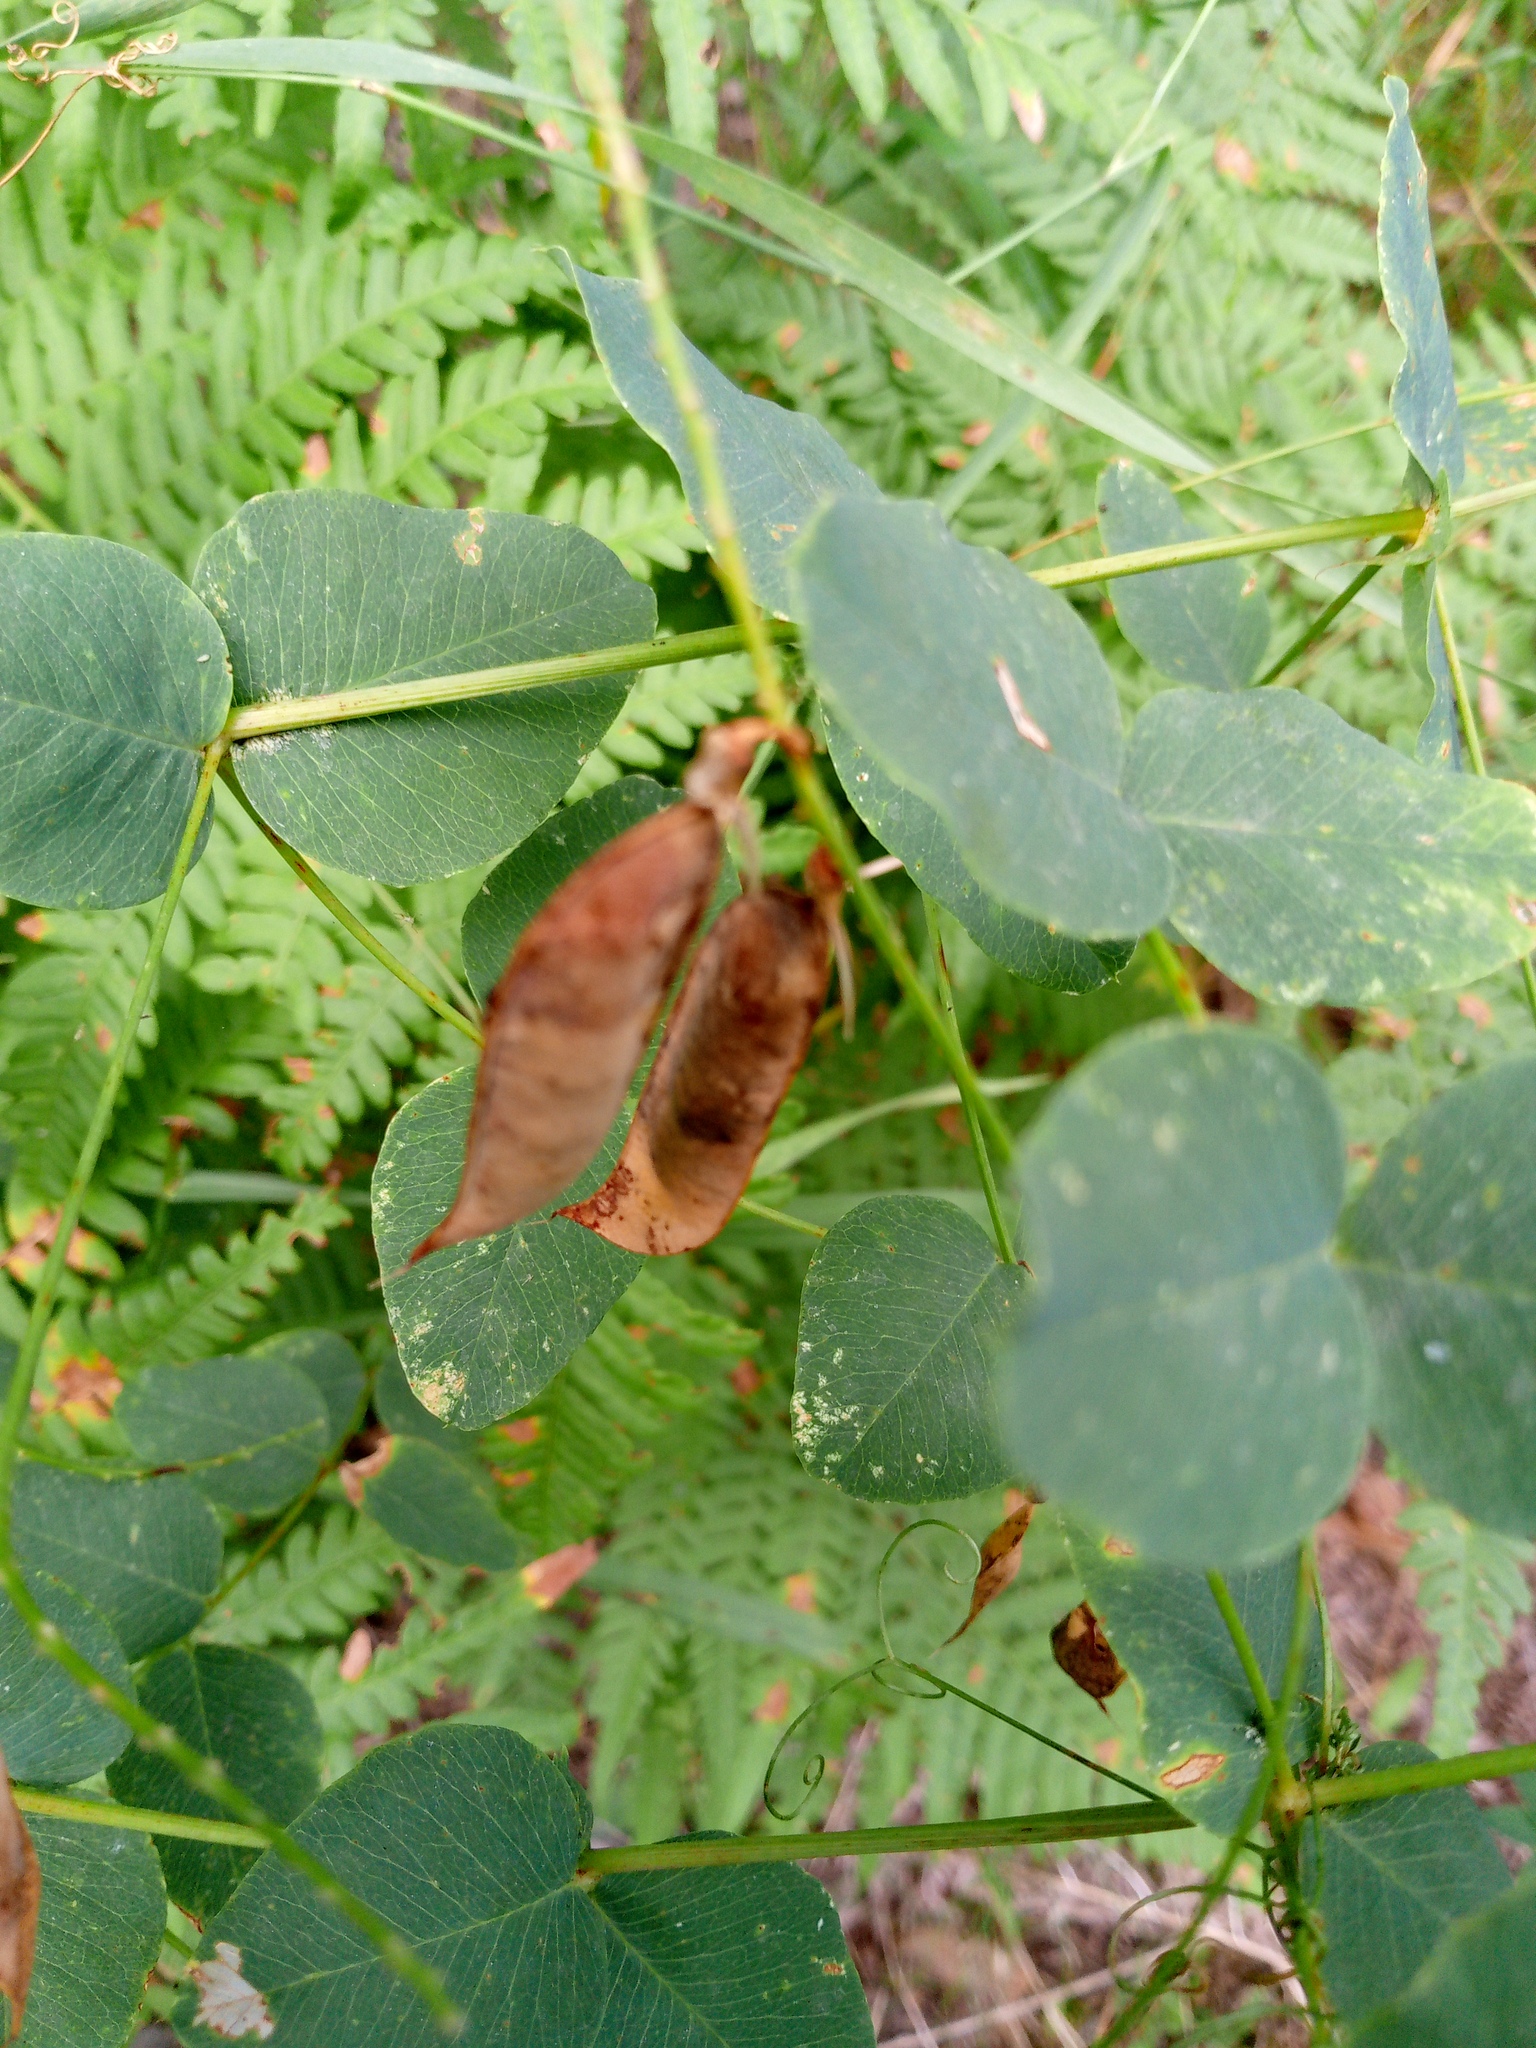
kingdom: Plantae
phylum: Tracheophyta
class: Magnoliopsida
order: Fabales
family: Fabaceae
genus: Vicia
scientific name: Vicia pisiformis
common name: Pale-flower vetch
